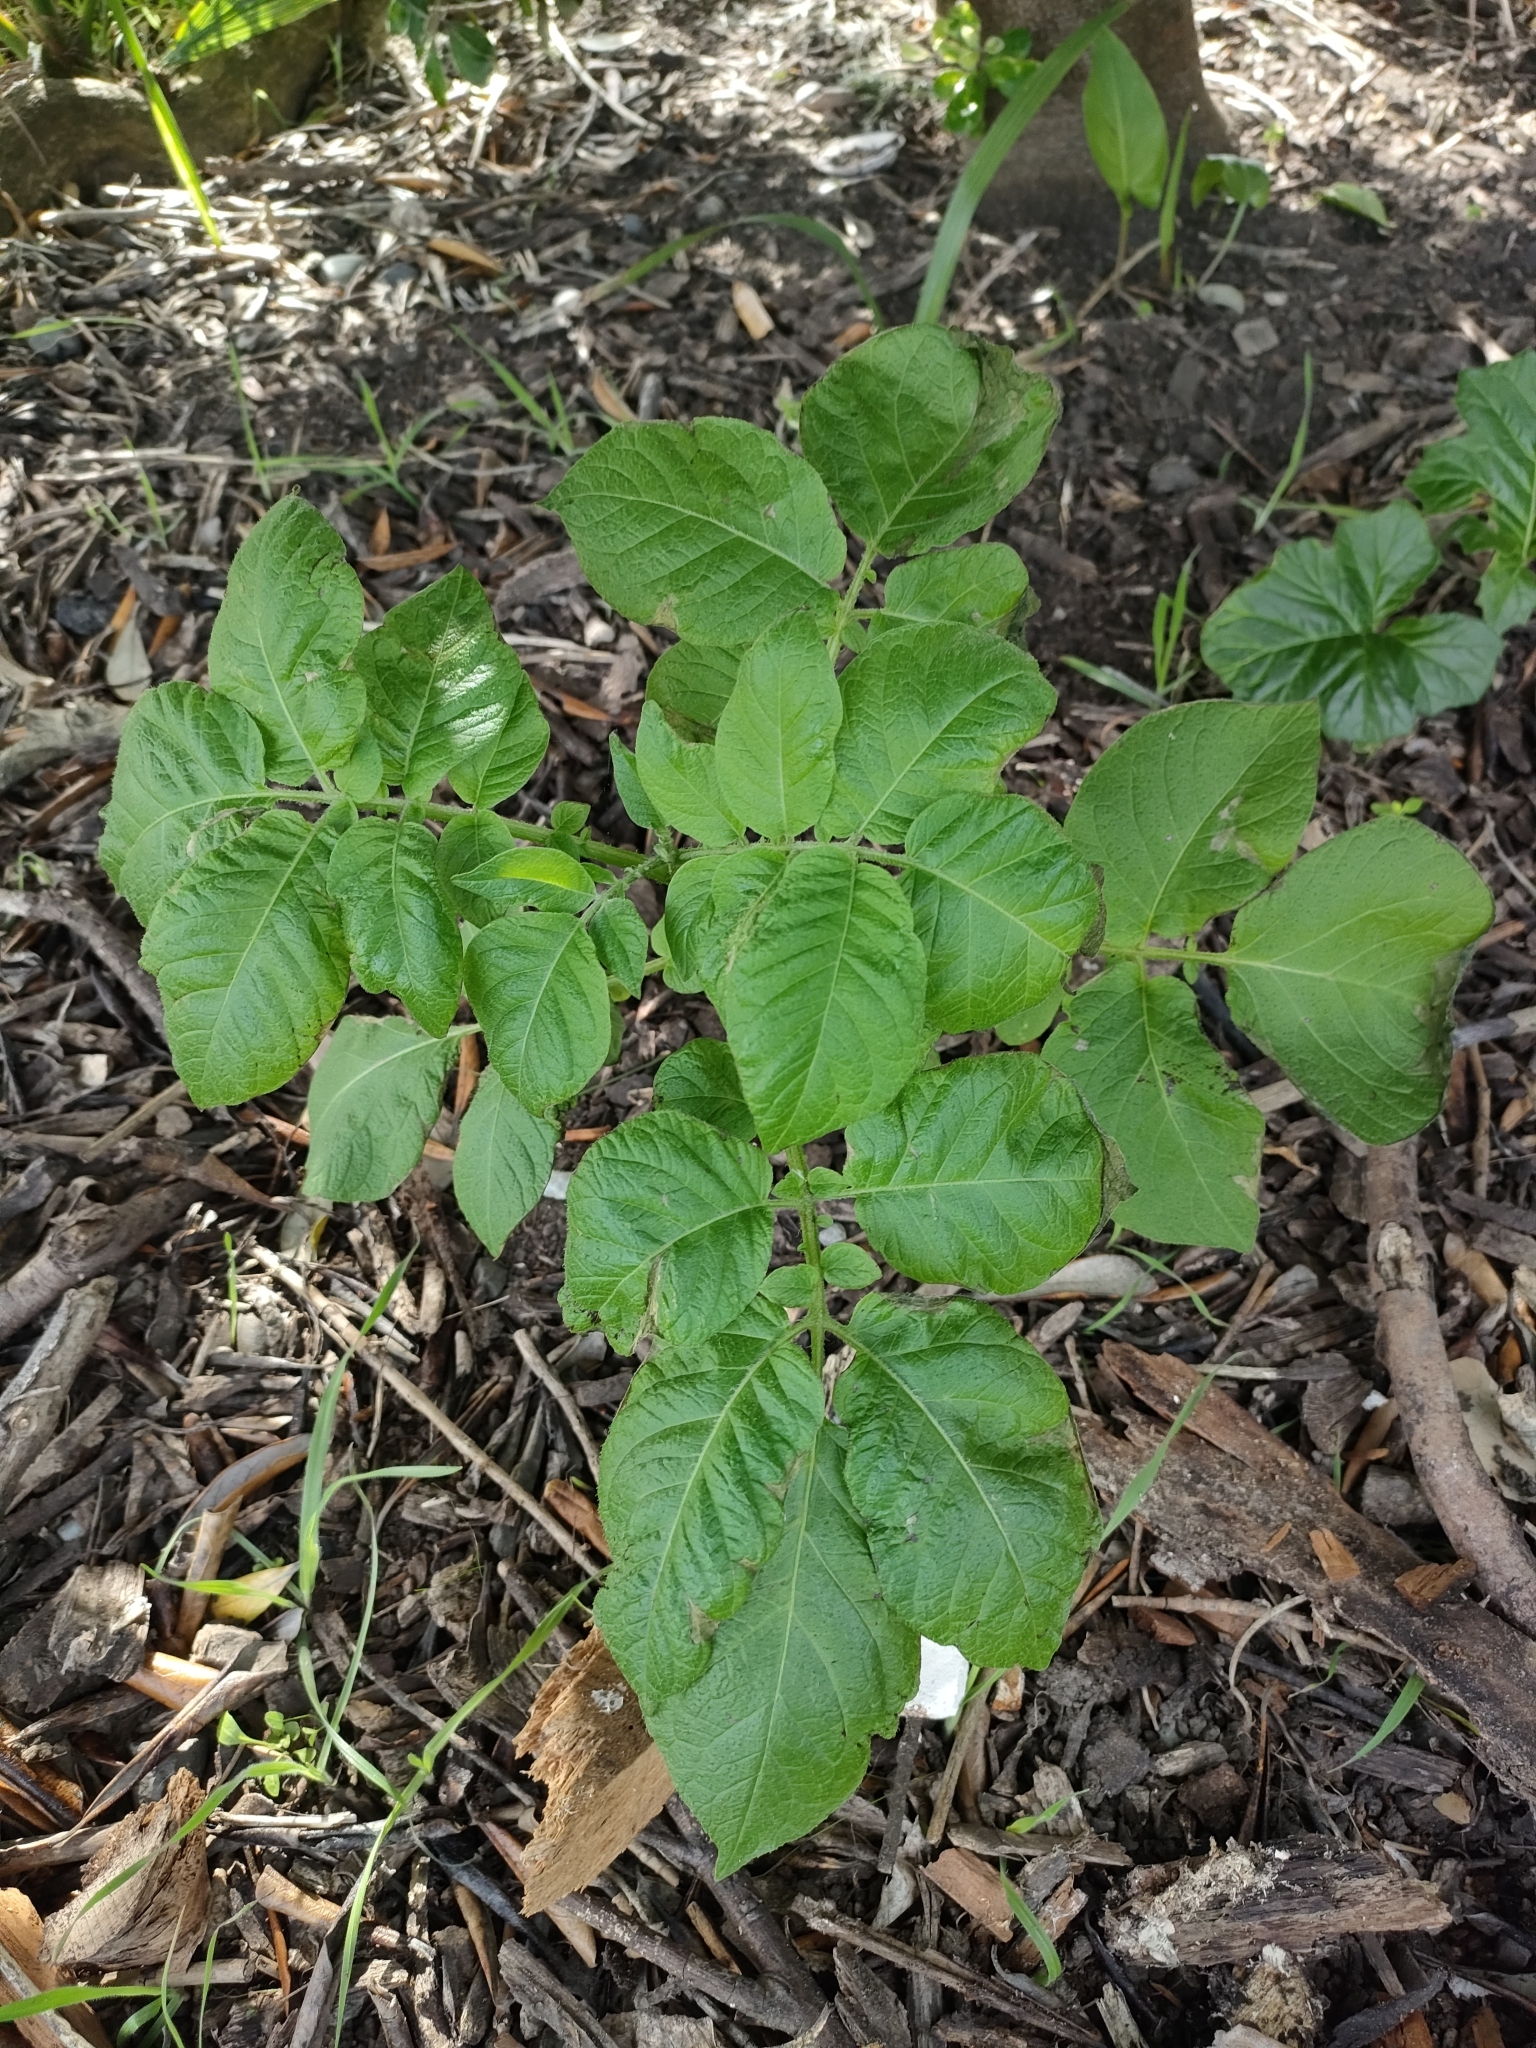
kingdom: Plantae
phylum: Tracheophyta
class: Magnoliopsida
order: Solanales
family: Solanaceae
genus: Solanum
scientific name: Solanum tuberosum
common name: Potato
